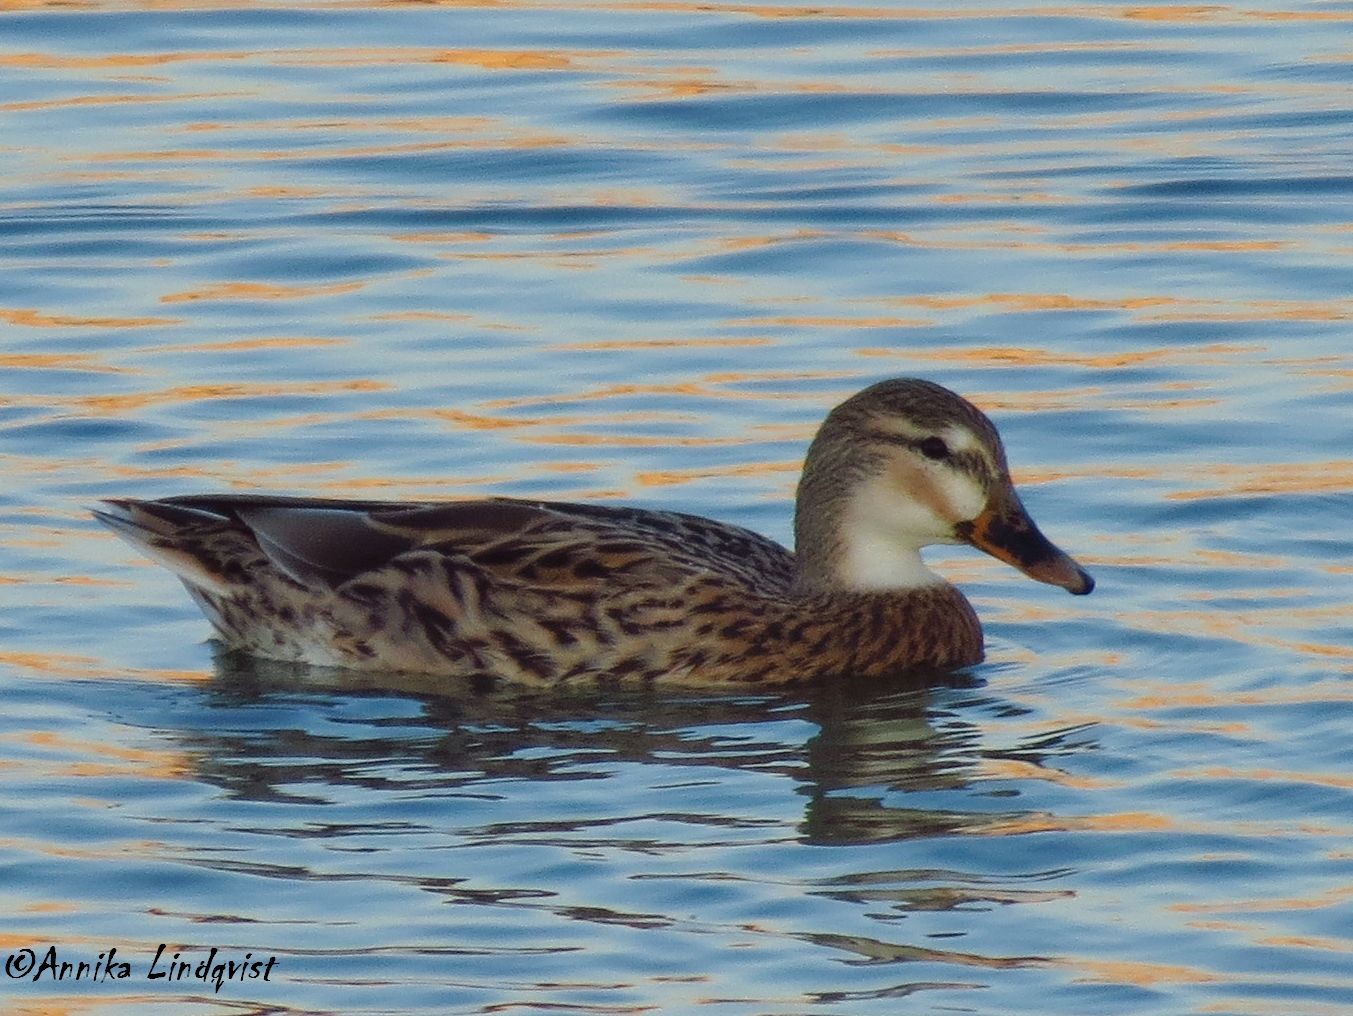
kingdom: Animalia
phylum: Chordata
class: Aves
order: Anseriformes
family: Anatidae
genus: Anas
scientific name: Anas platyrhynchos
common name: Mallard
